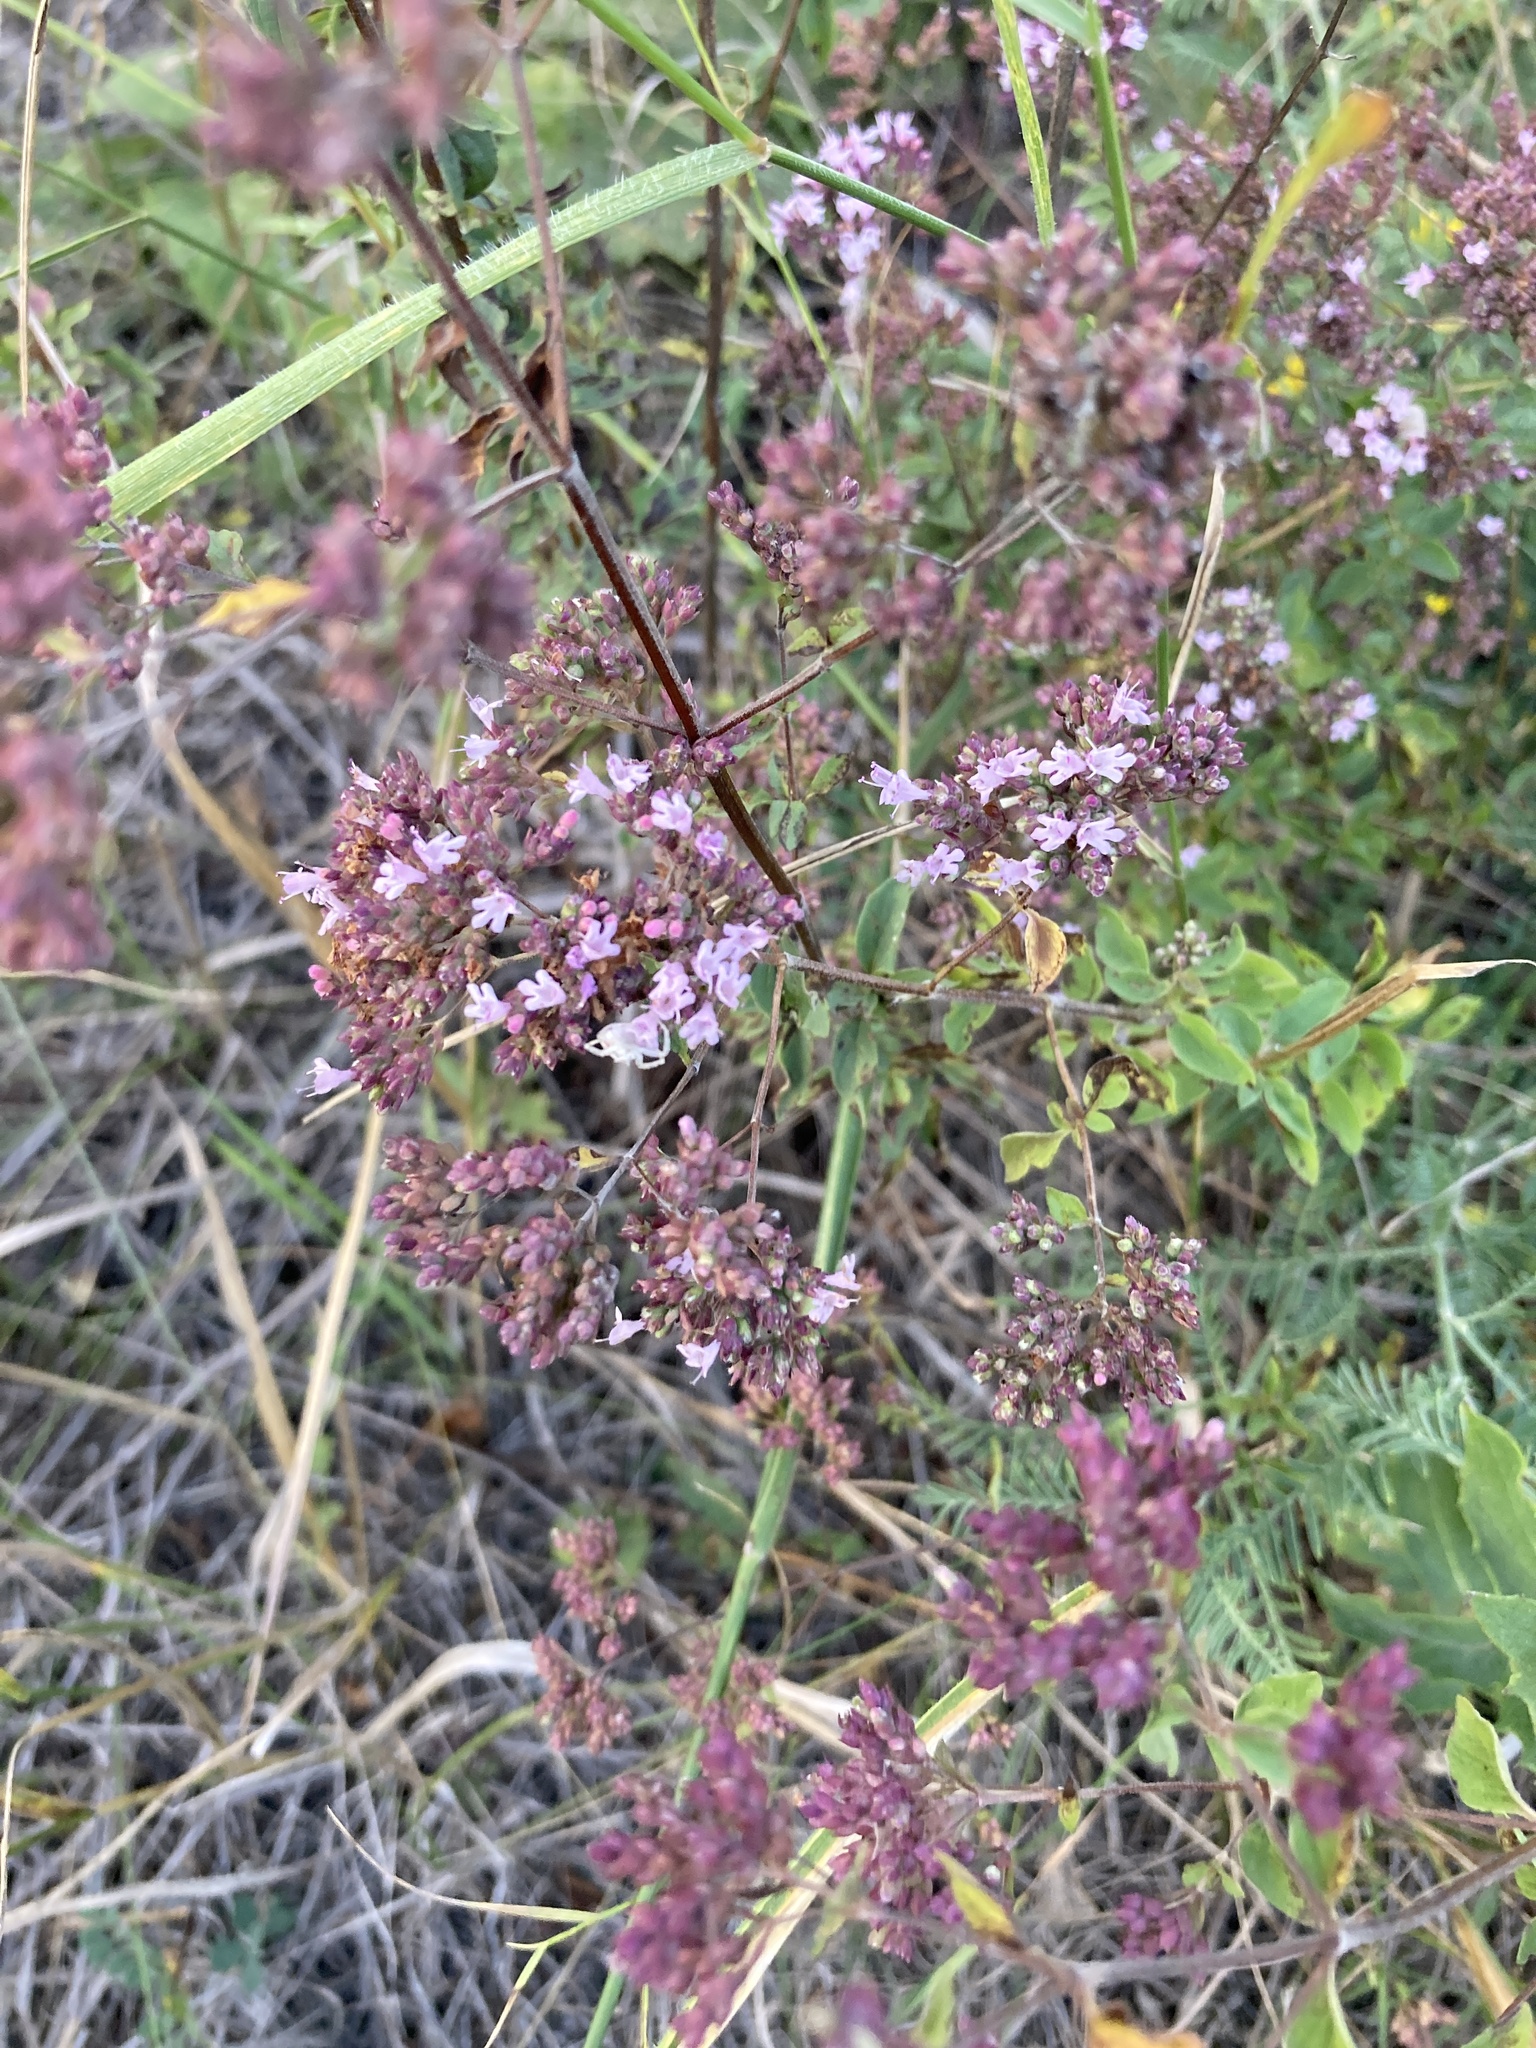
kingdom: Plantae
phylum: Tracheophyta
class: Magnoliopsida
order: Lamiales
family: Lamiaceae
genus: Origanum
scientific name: Origanum vulgare
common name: Wild marjoram
